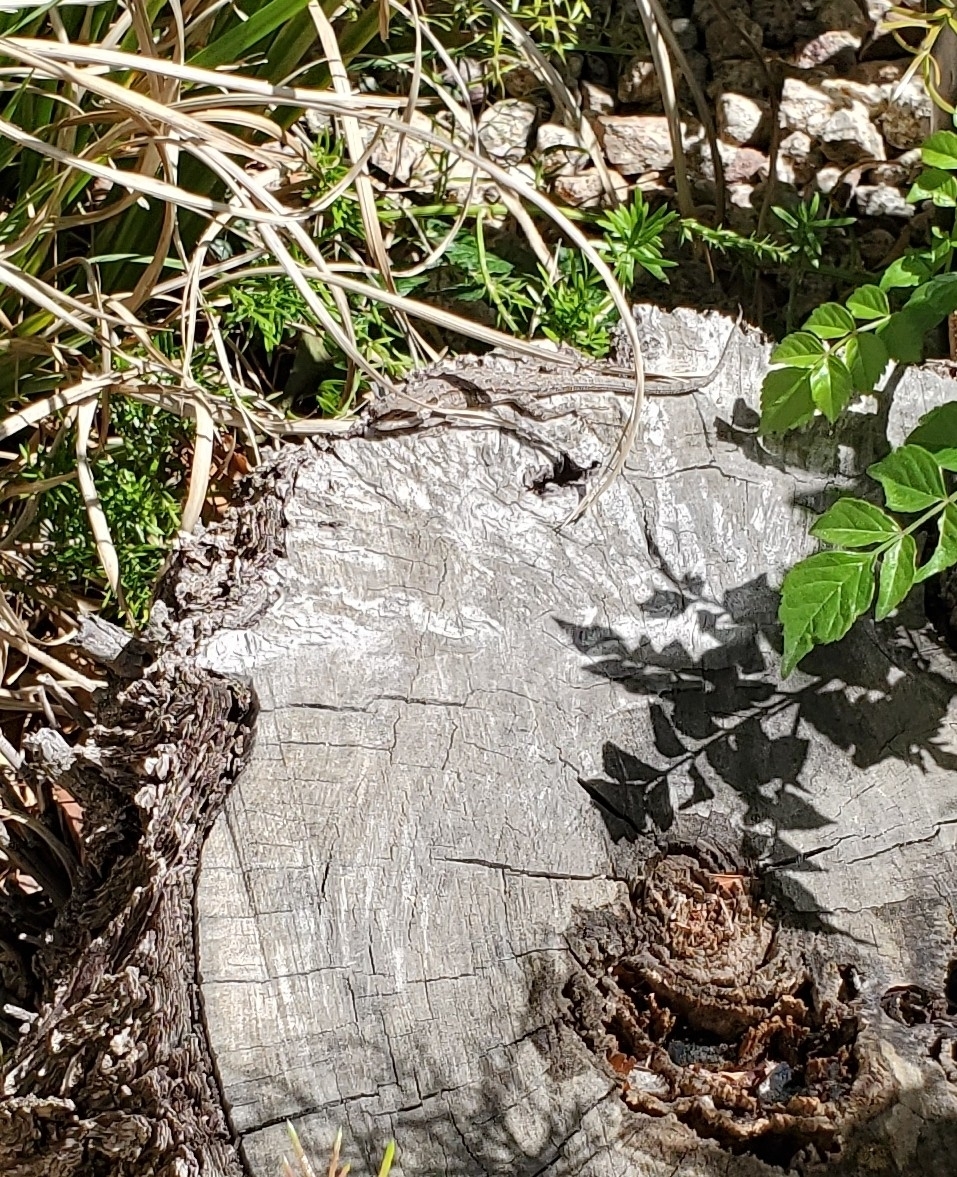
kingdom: Animalia
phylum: Chordata
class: Squamata
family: Phrynosomatidae
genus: Urosaurus
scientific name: Urosaurus ornatus
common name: Ornate tree lizard
